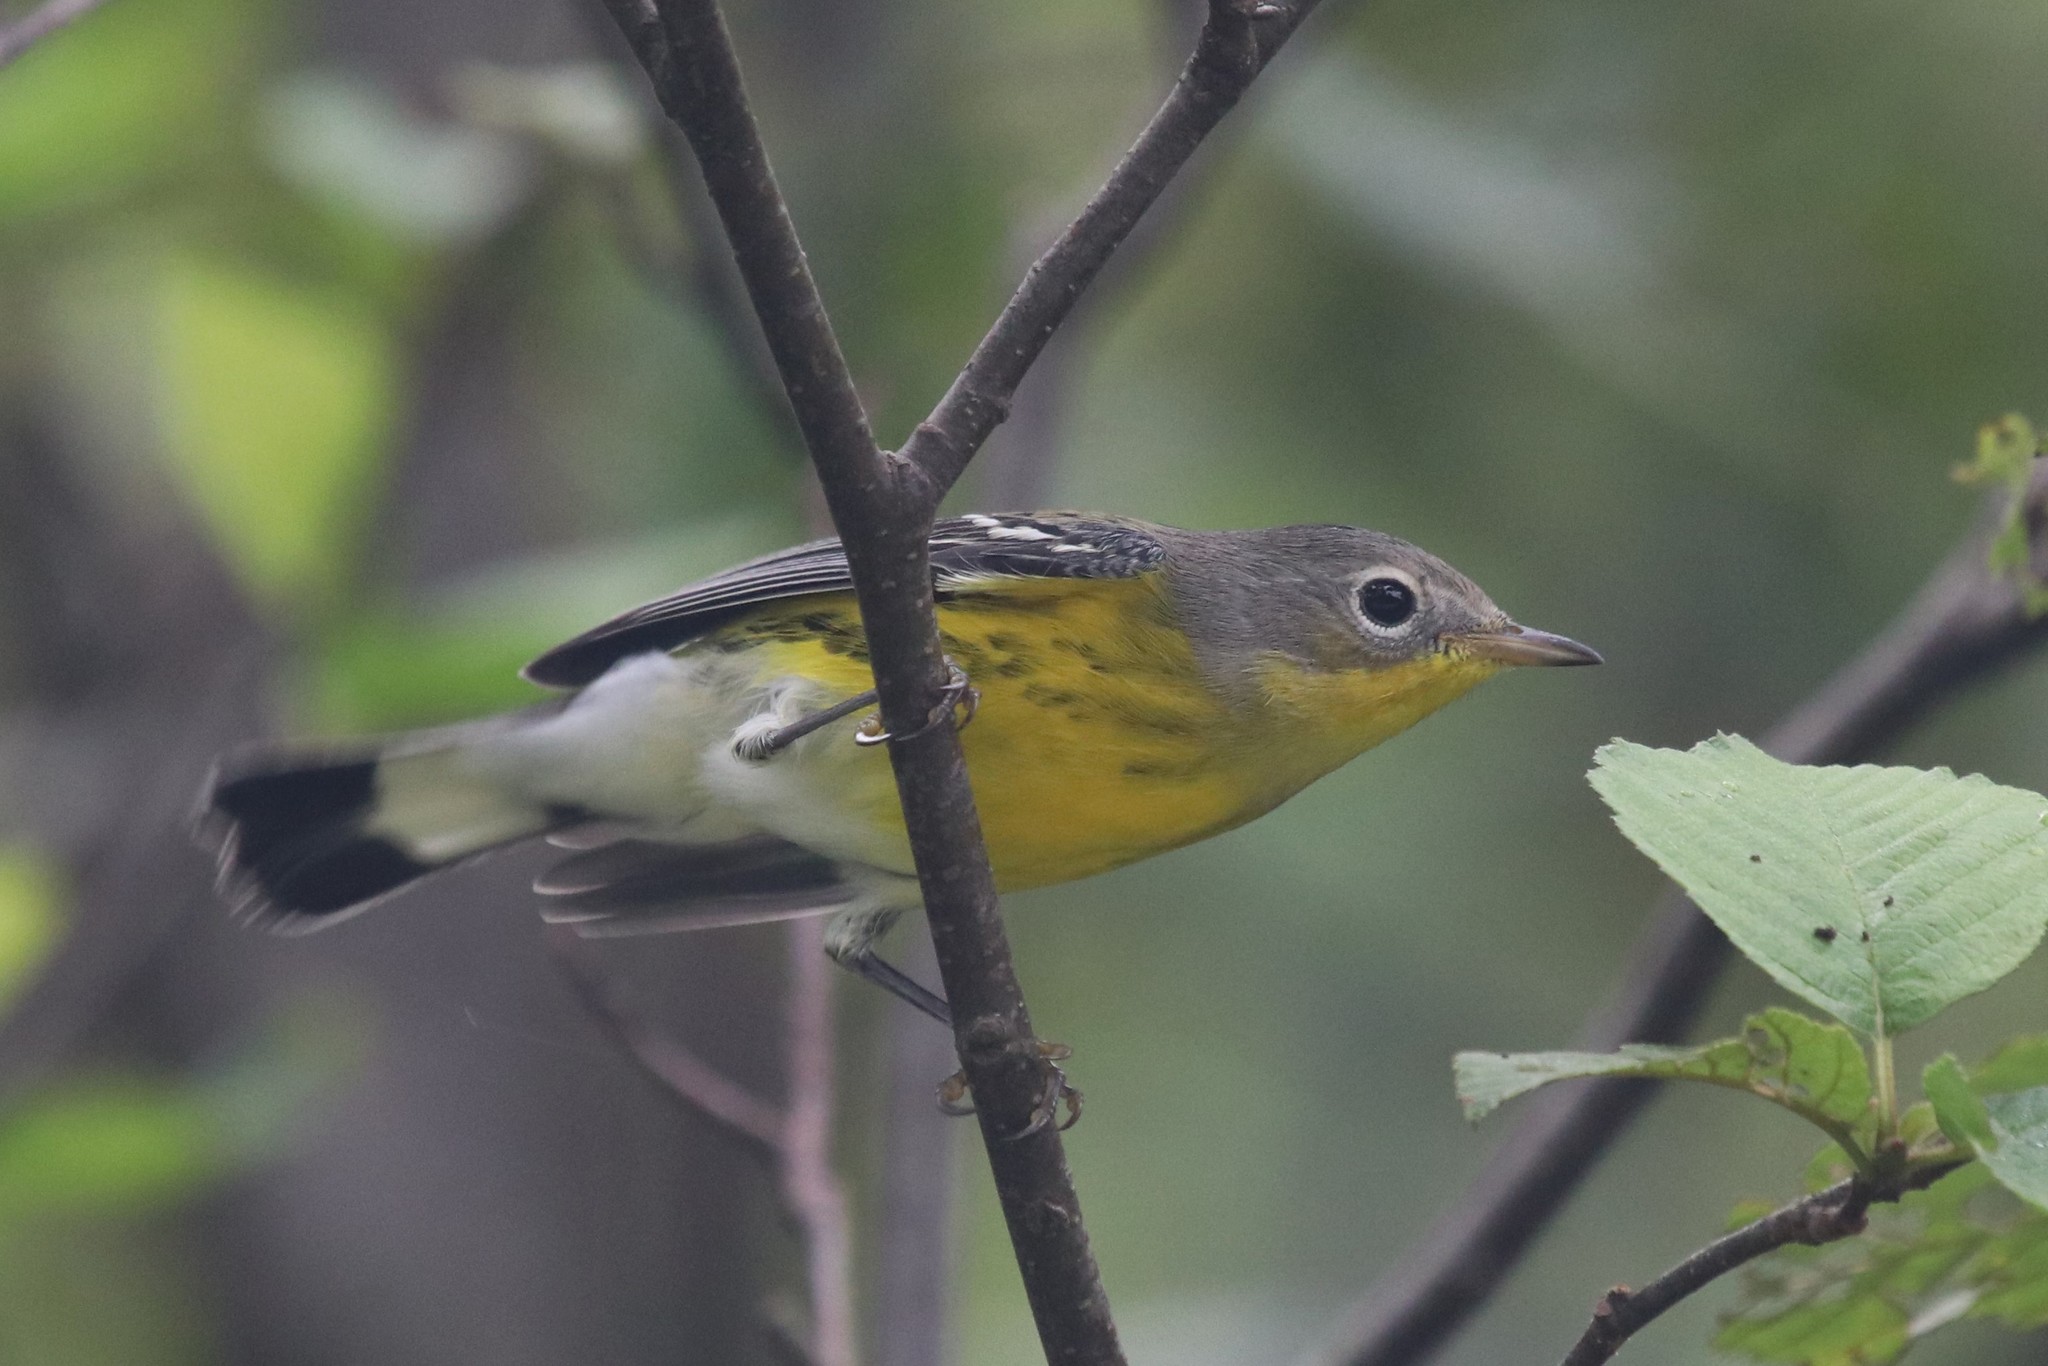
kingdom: Animalia
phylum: Chordata
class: Aves
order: Passeriformes
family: Parulidae
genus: Setophaga
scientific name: Setophaga magnolia
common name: Magnolia warbler
